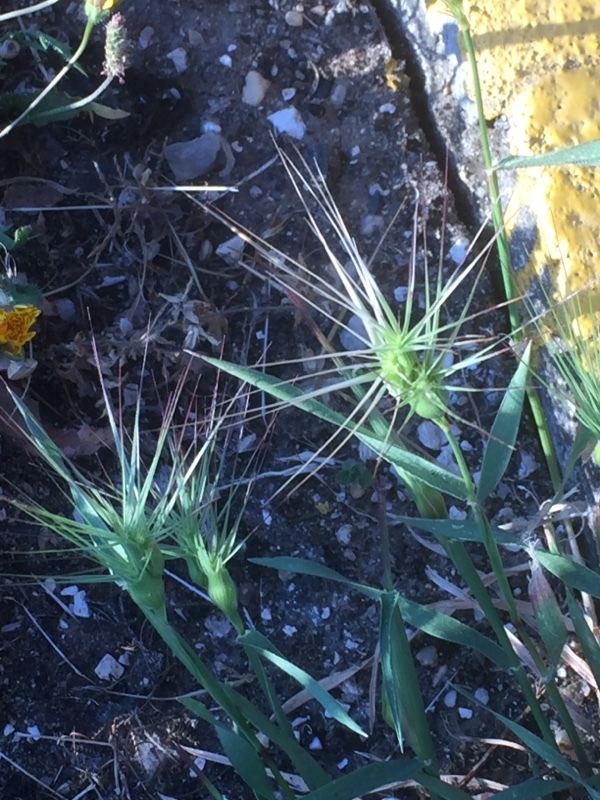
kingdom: Plantae
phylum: Tracheophyta
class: Liliopsida
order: Poales
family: Poaceae
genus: Aegilops
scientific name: Aegilops geniculata
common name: Ovate goat grass
